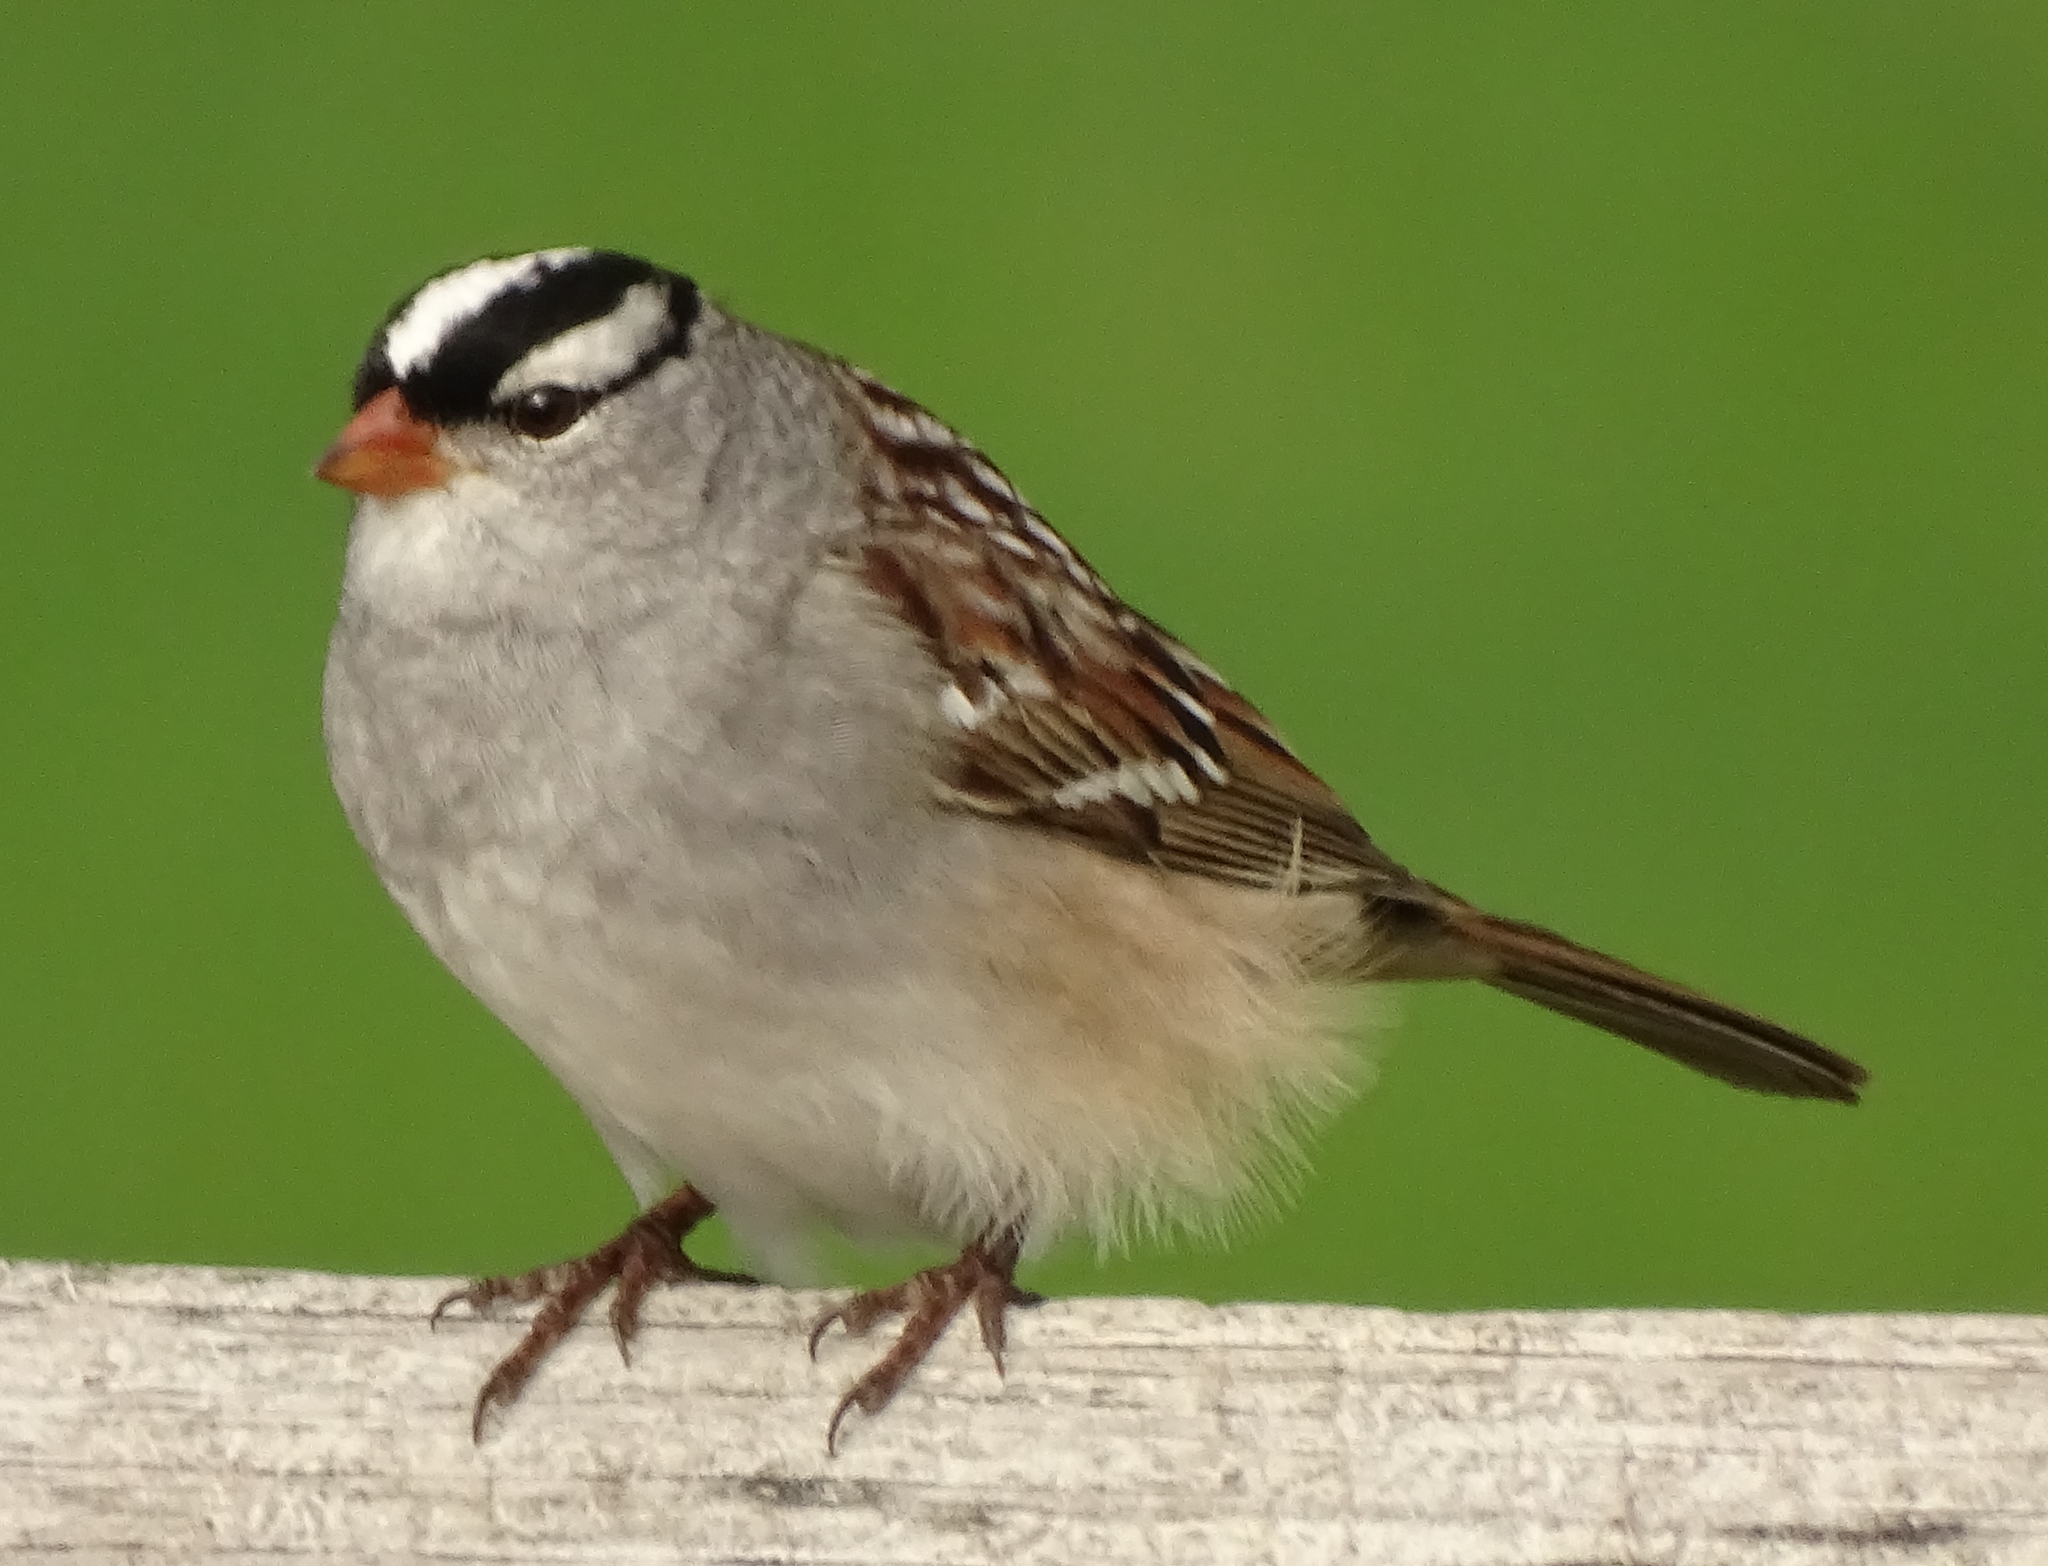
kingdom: Animalia
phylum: Chordata
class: Aves
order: Passeriformes
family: Passerellidae
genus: Zonotrichia
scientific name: Zonotrichia leucophrys
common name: White-crowned sparrow
